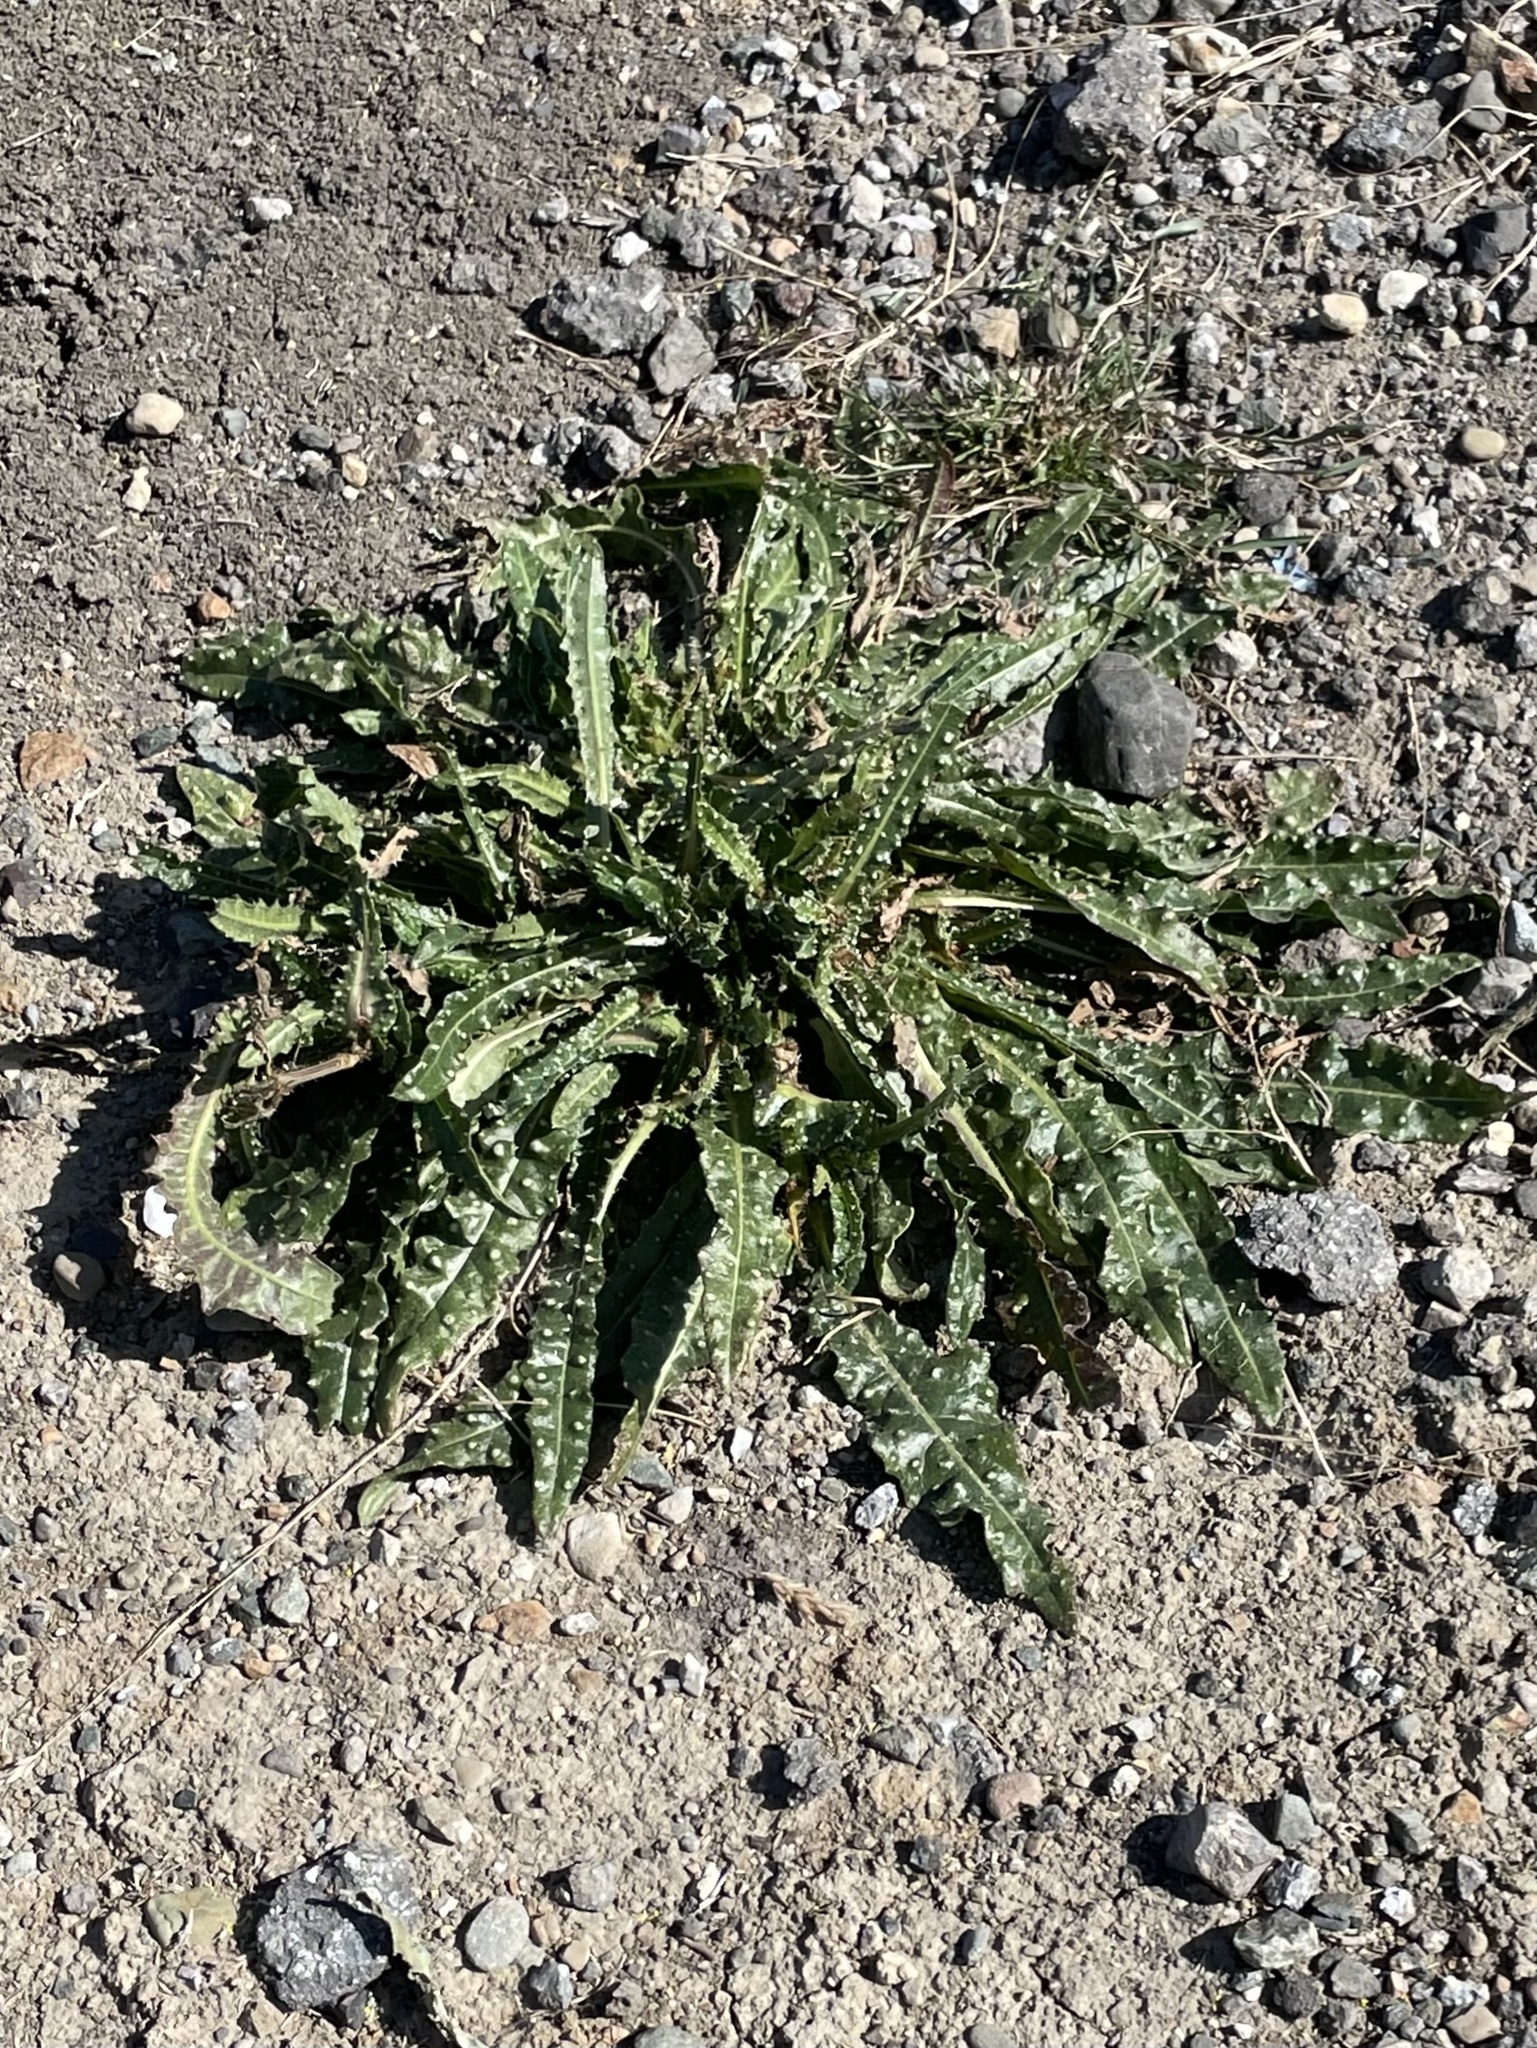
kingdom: Plantae
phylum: Tracheophyta
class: Magnoliopsida
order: Asterales
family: Asteraceae
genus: Helminthotheca
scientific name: Helminthotheca echioides
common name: Ox-tongue
